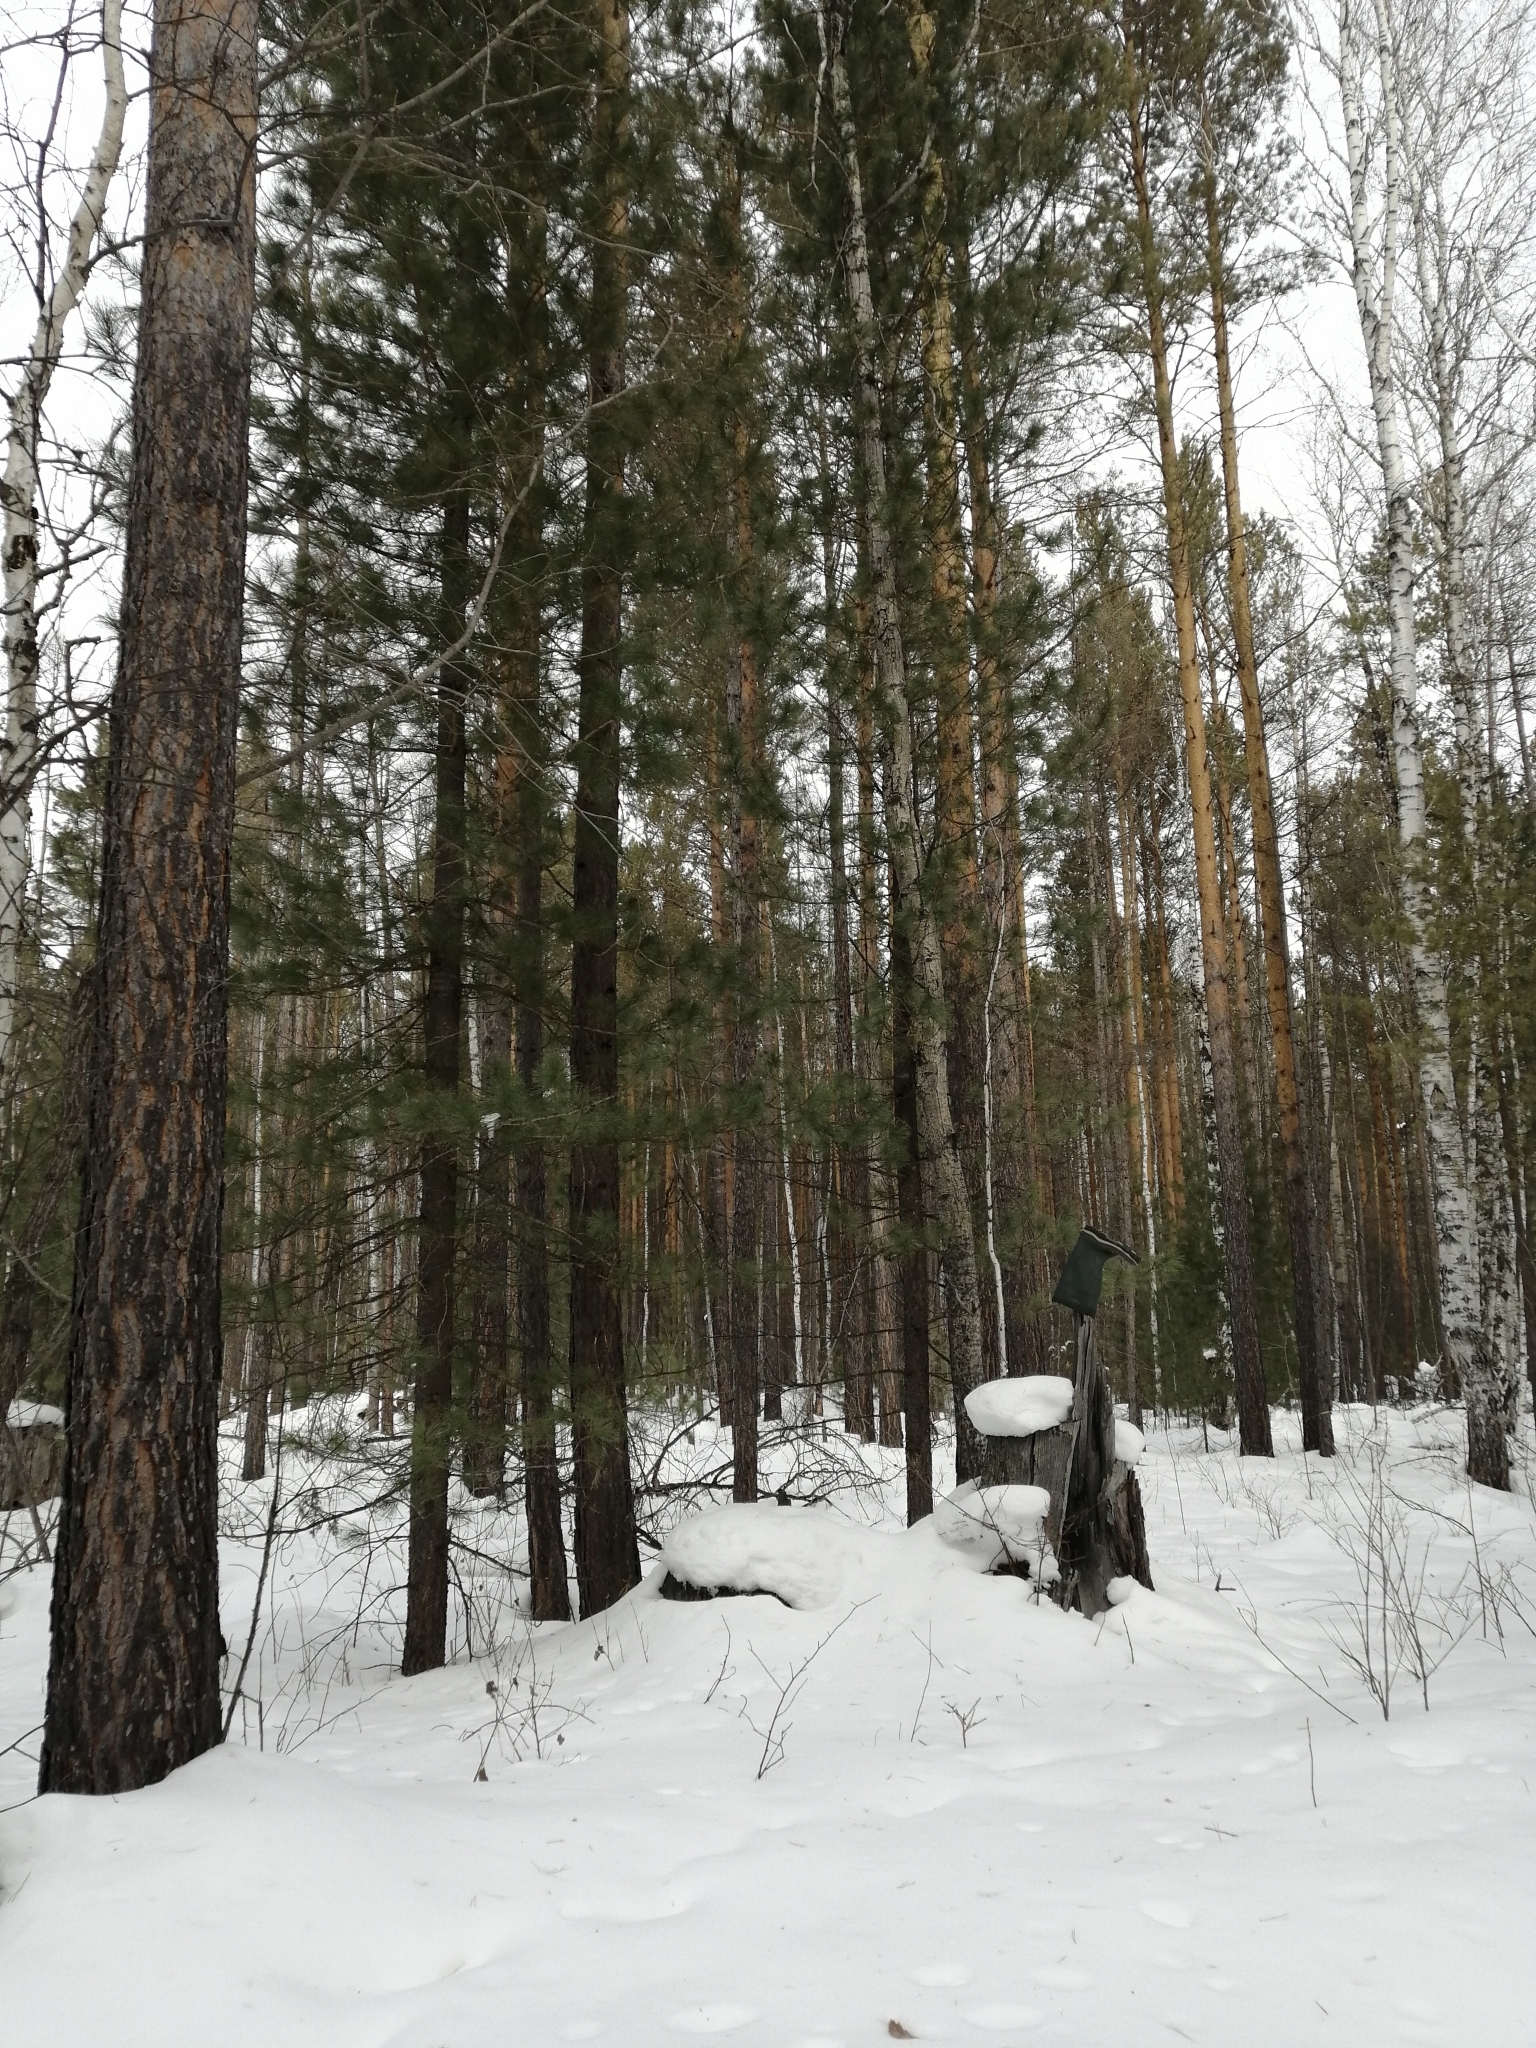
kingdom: Plantae
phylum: Tracheophyta
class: Pinopsida
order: Pinales
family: Pinaceae
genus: Pinus
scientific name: Pinus sibirica
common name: Siberian pine
